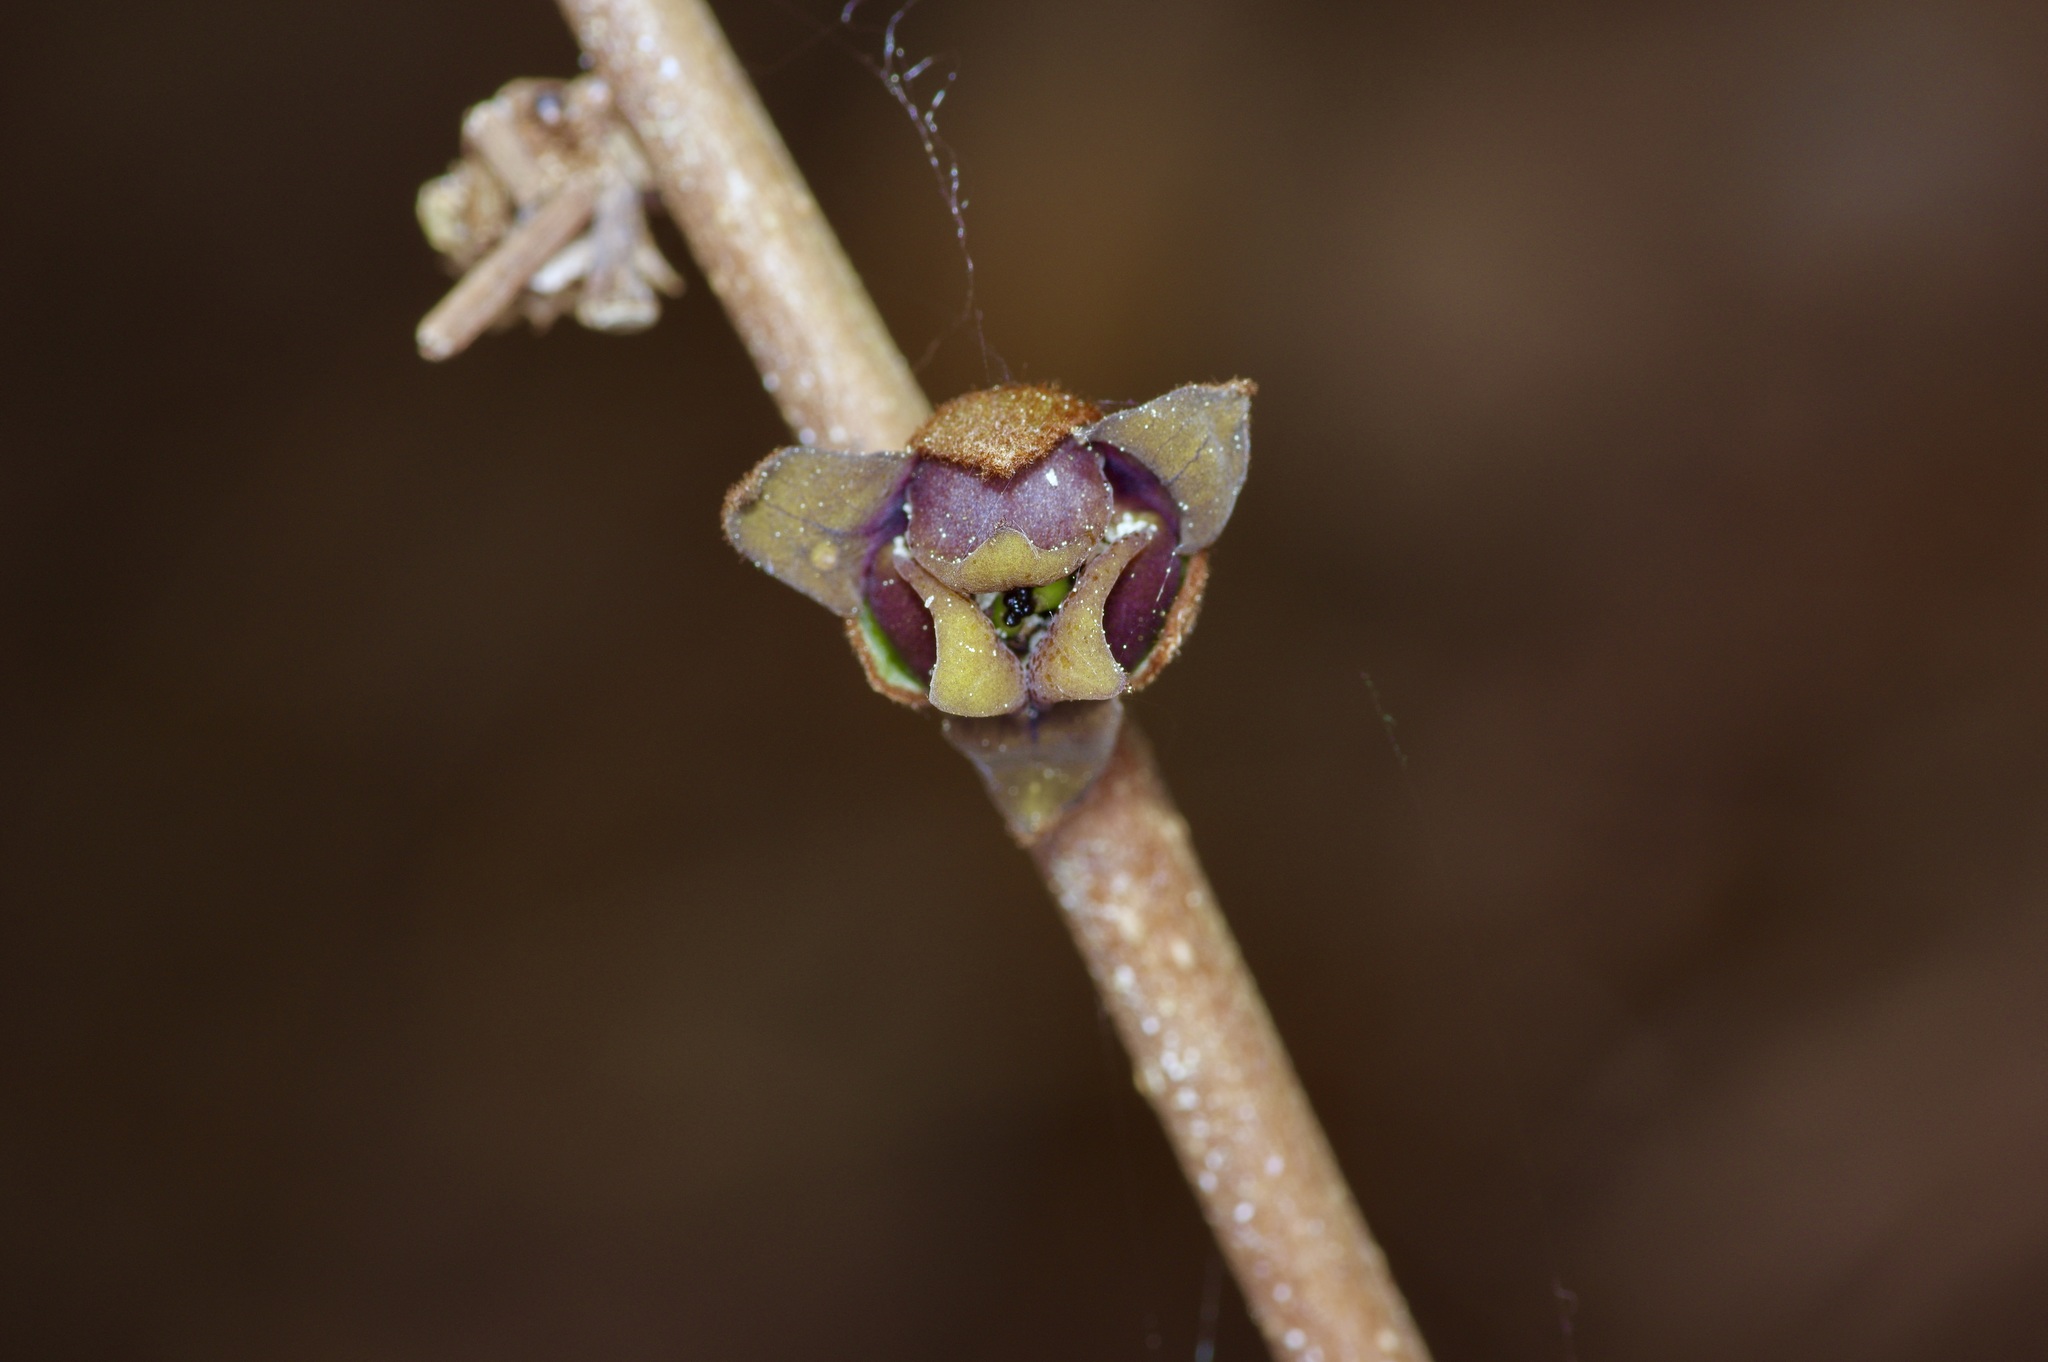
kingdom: Plantae
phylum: Tracheophyta
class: Magnoliopsida
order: Magnoliales
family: Annonaceae
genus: Asimina
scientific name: Asimina parviflora
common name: Dwarf pawpaw
